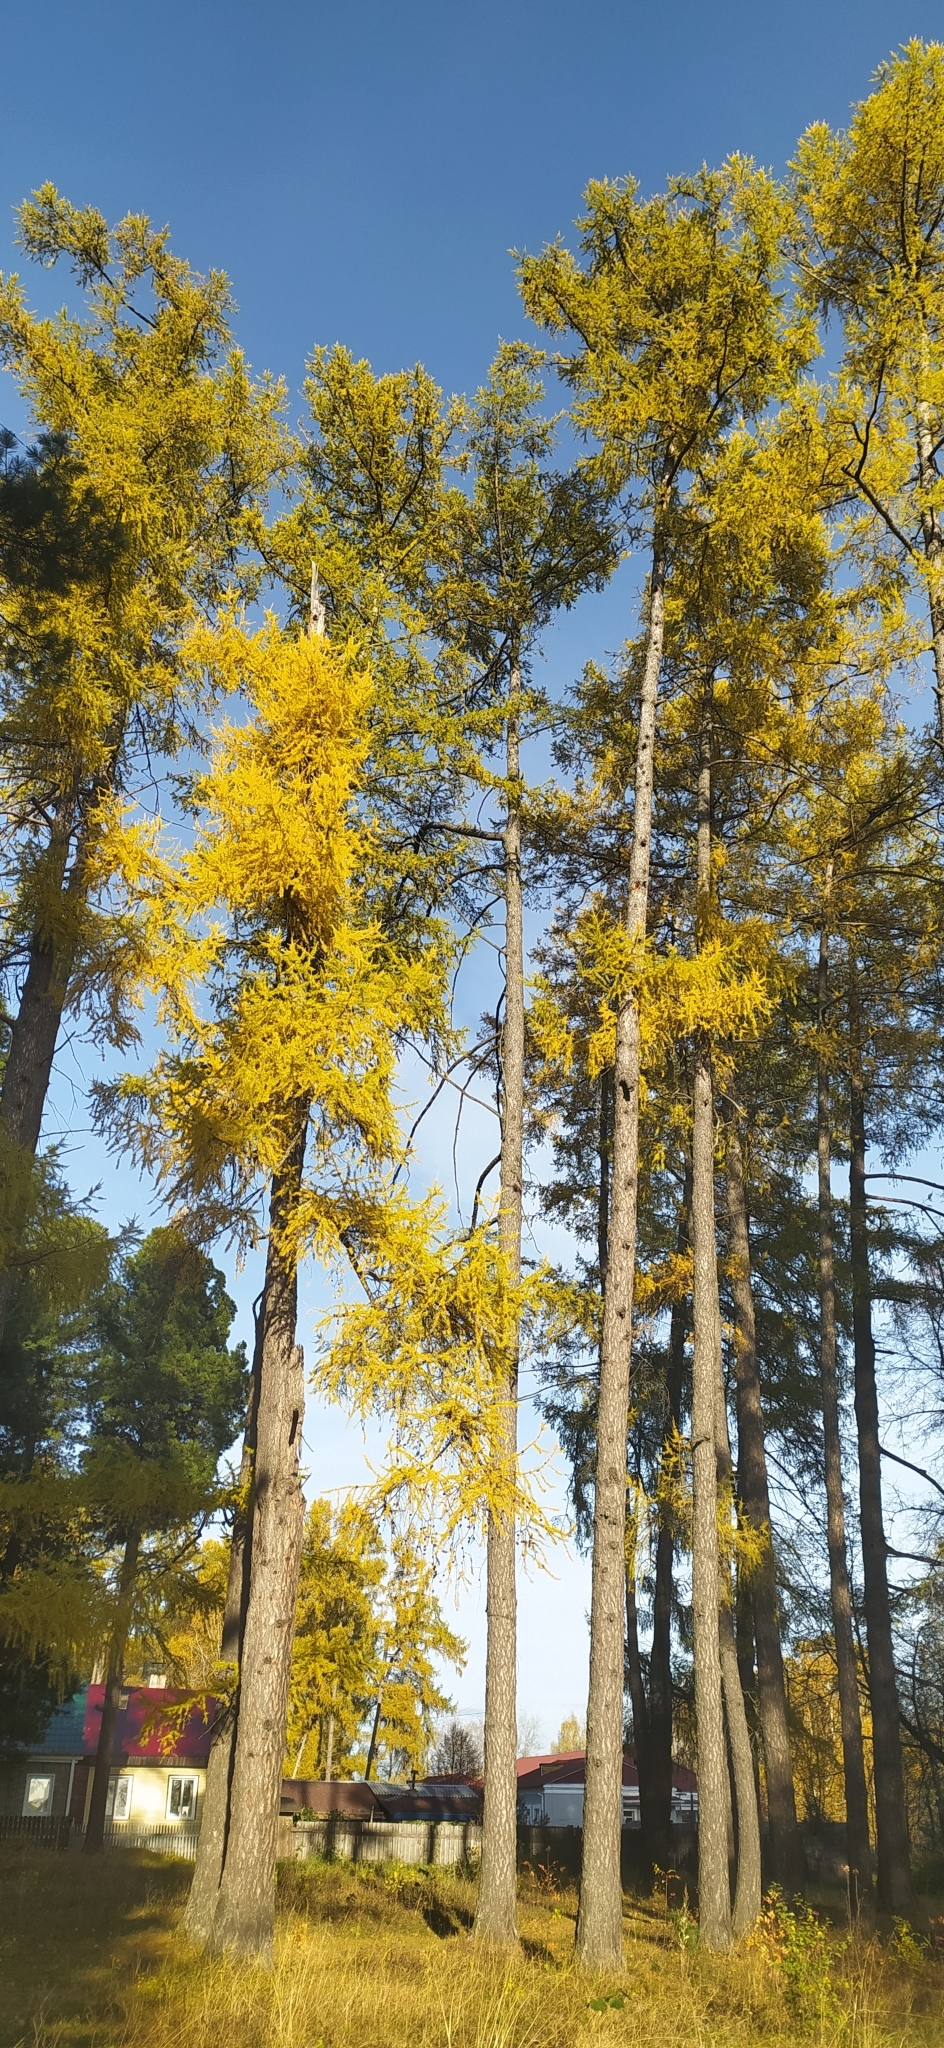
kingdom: Plantae
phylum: Tracheophyta
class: Pinopsida
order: Pinales
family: Pinaceae
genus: Larix
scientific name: Larix sibirica
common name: Siberian larch
